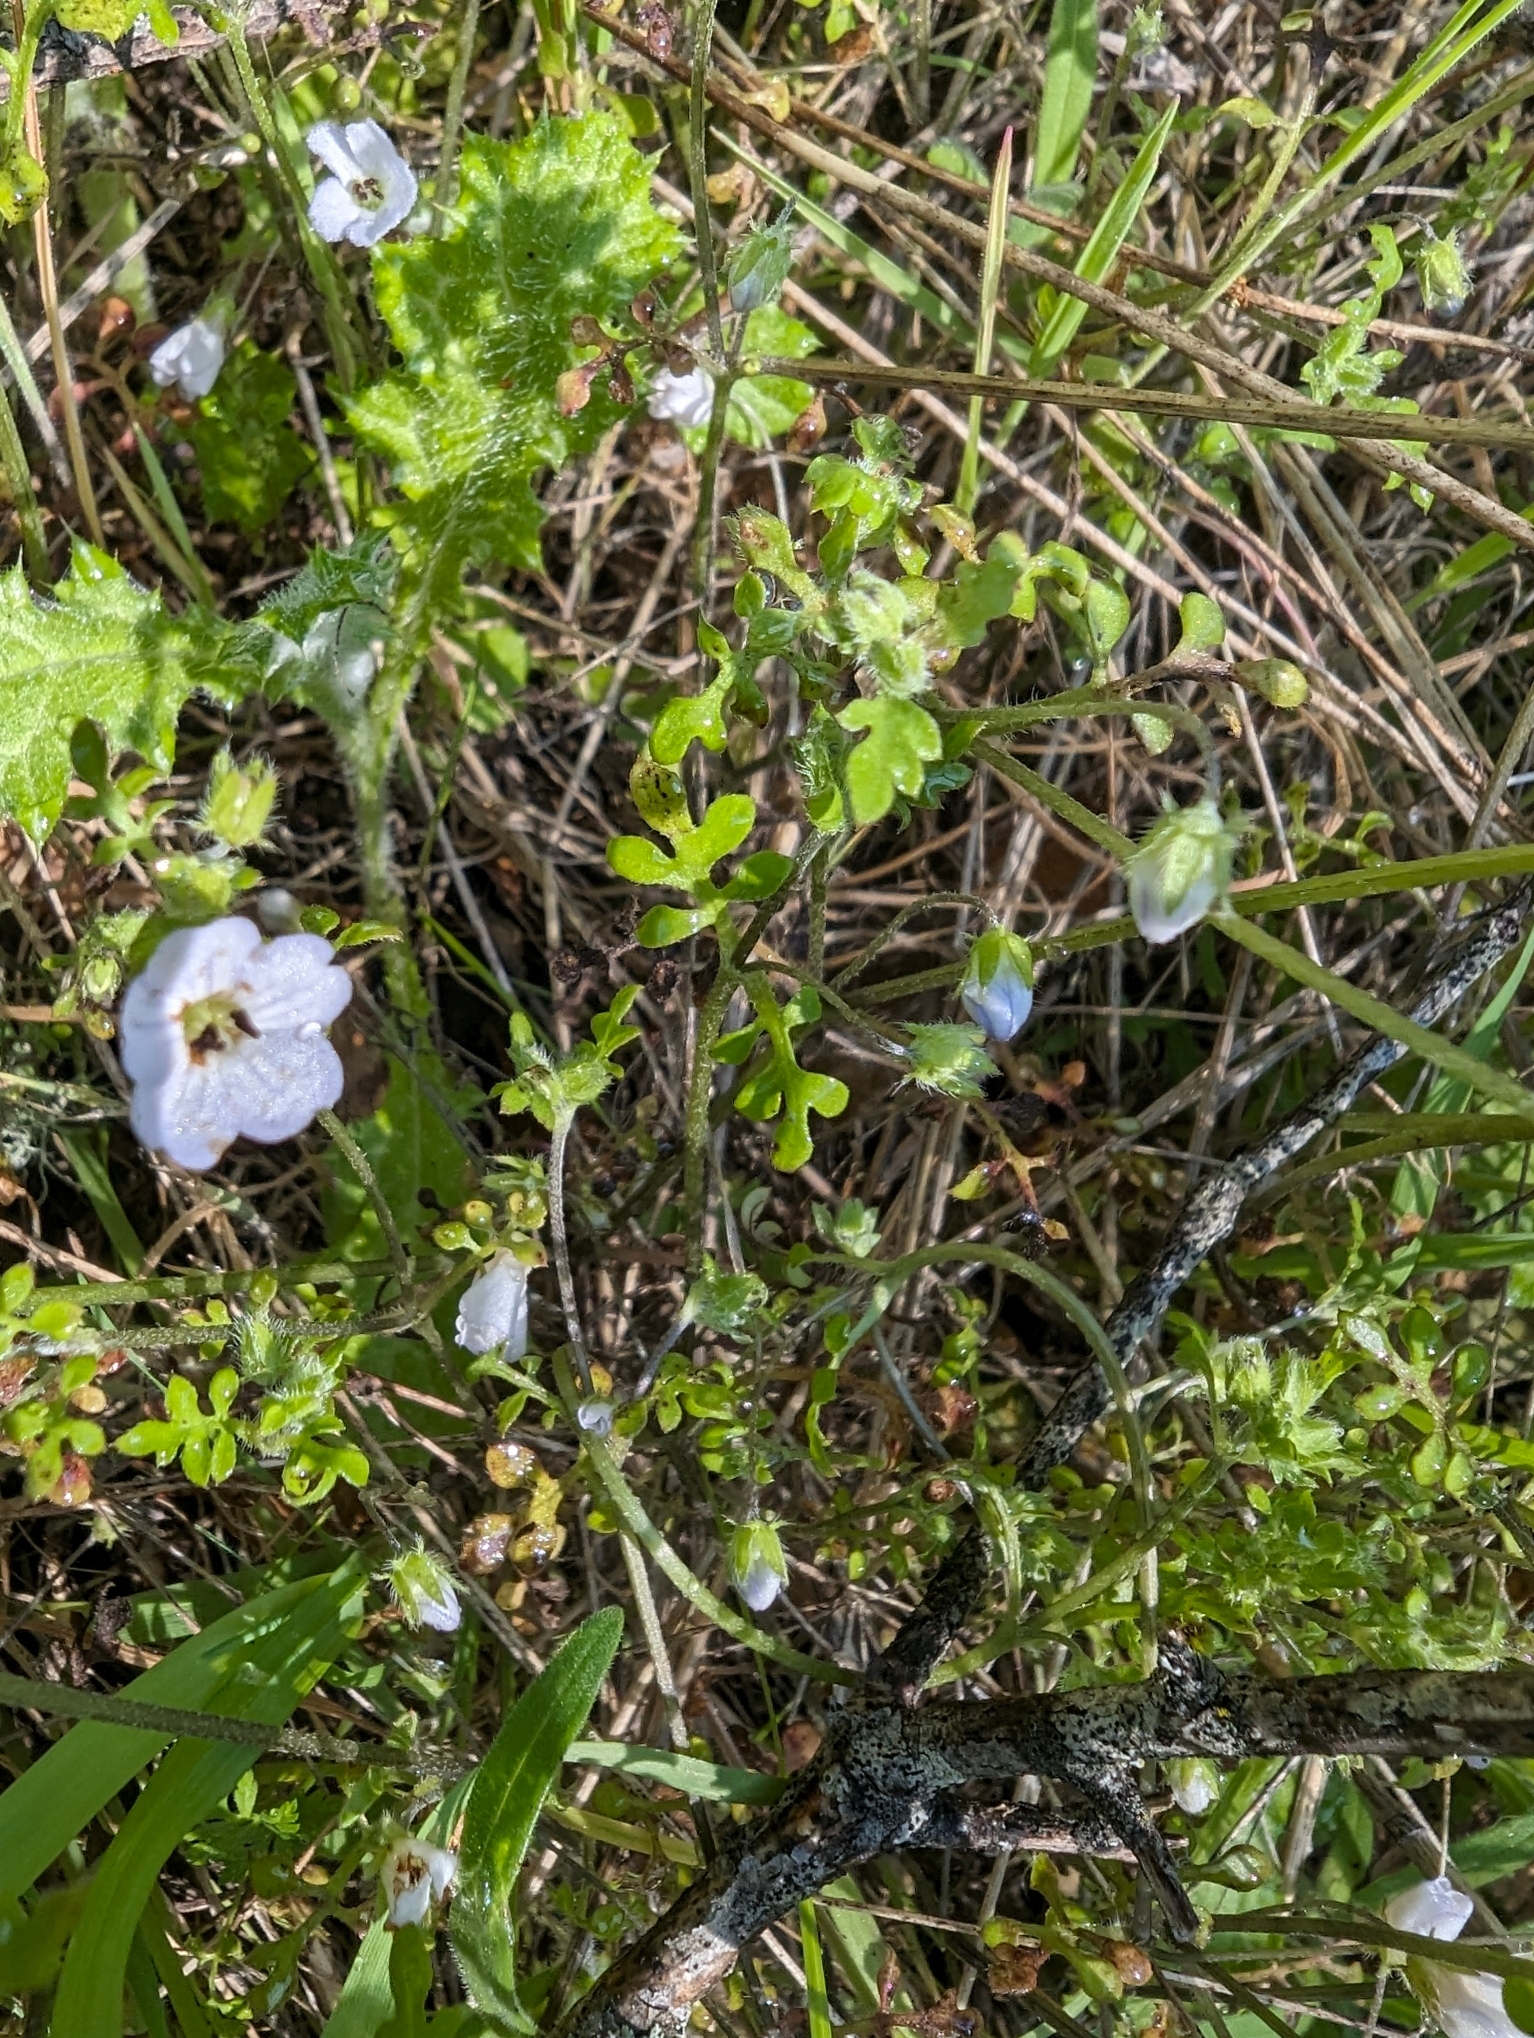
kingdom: Plantae
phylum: Tracheophyta
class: Magnoliopsida
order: Boraginales
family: Hydrophyllaceae
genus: Nemophila
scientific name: Nemophila heterophylla
